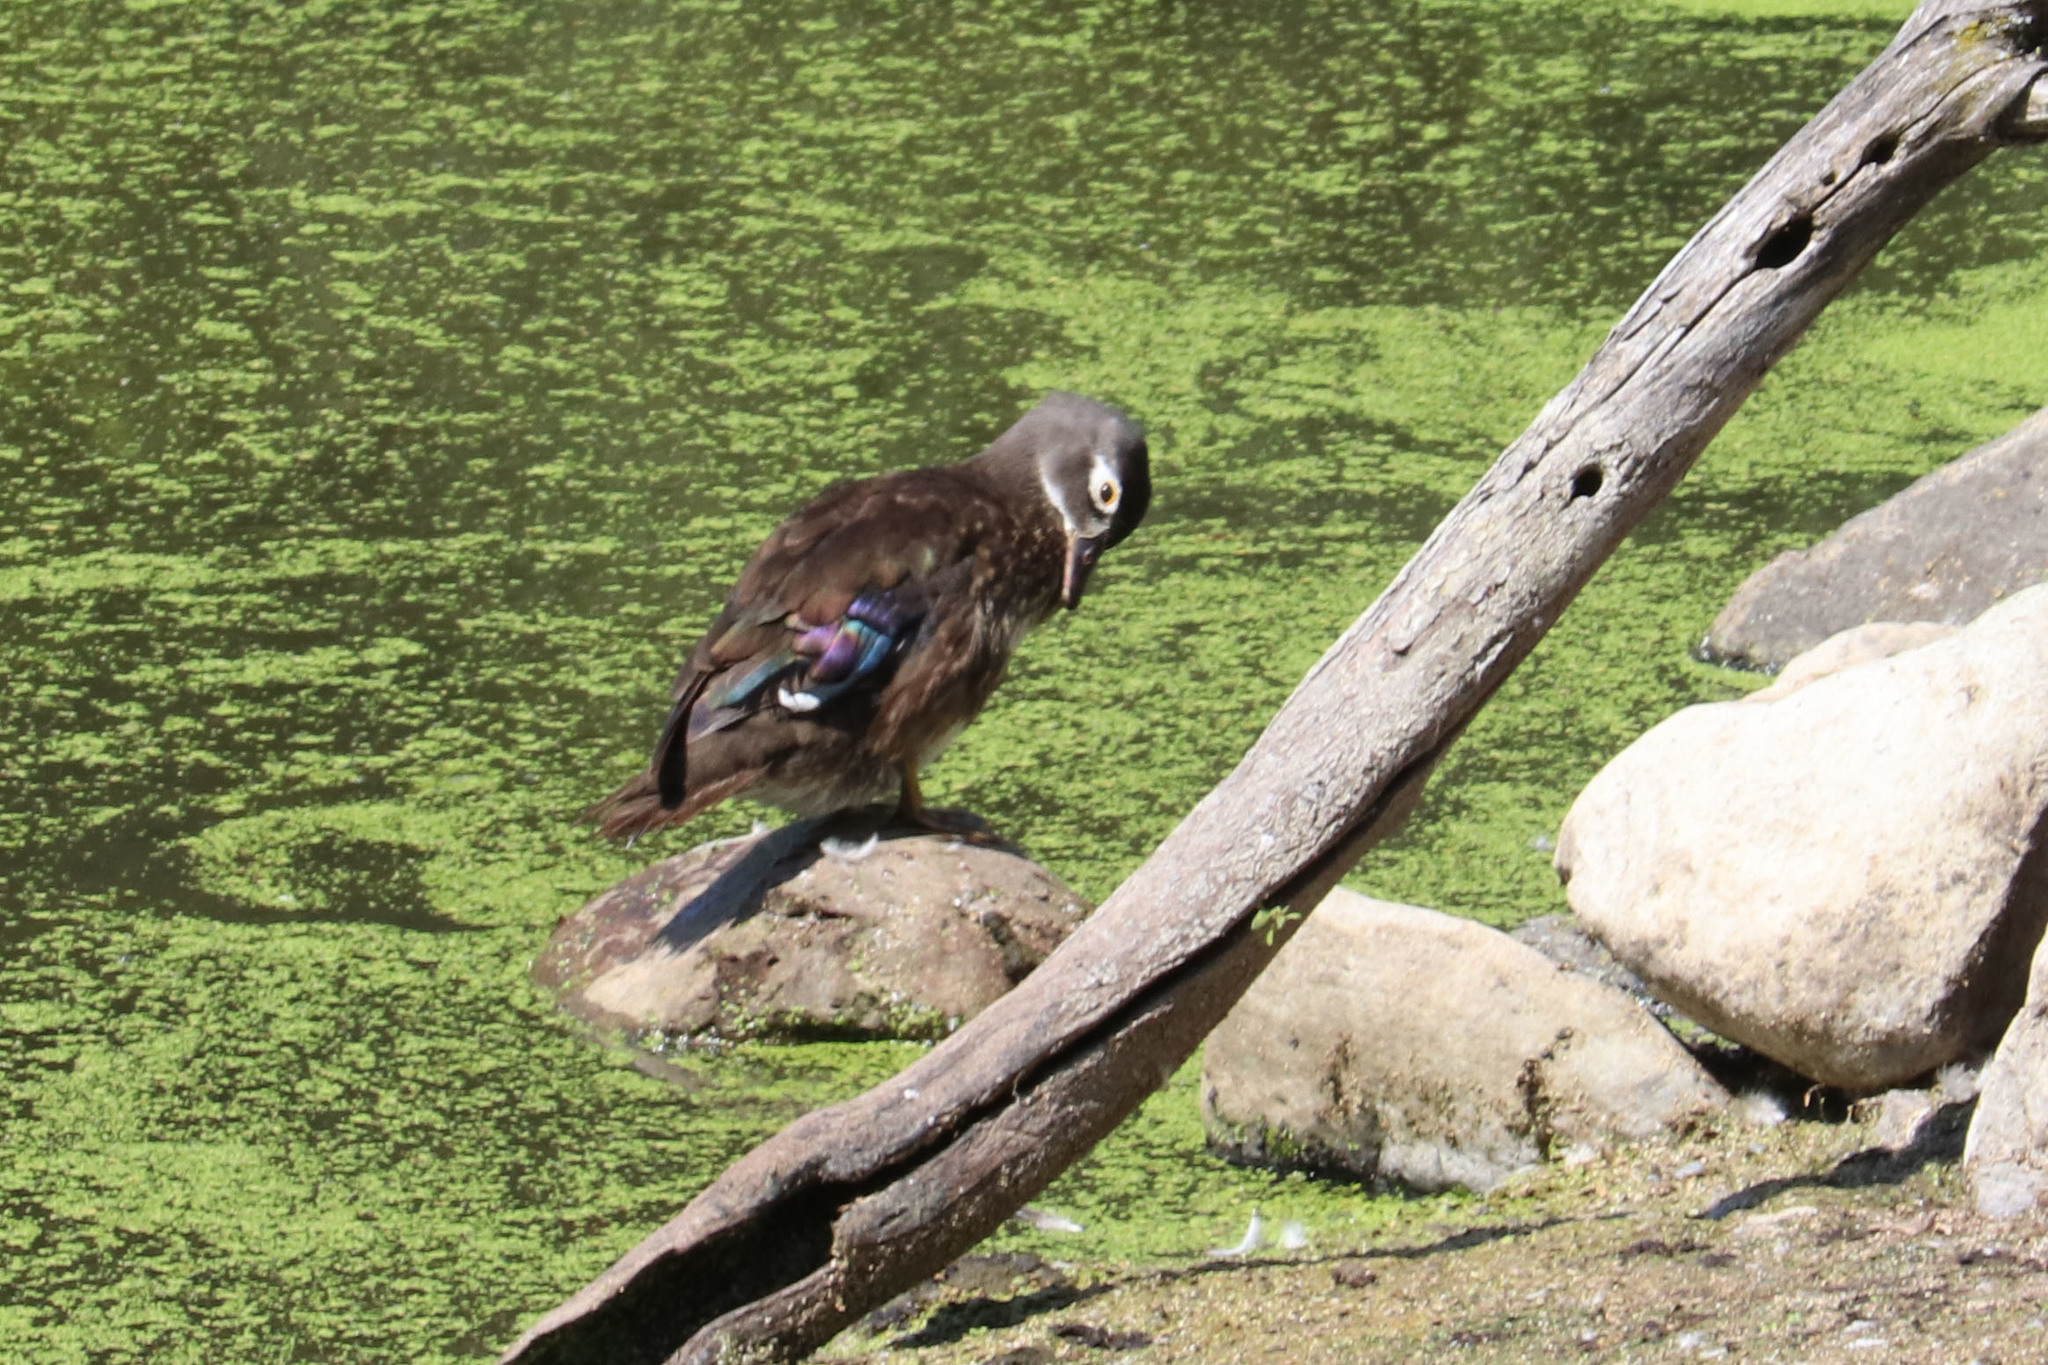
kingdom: Animalia
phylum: Chordata
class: Aves
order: Anseriformes
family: Anatidae
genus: Aix
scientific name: Aix sponsa
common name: Wood duck
